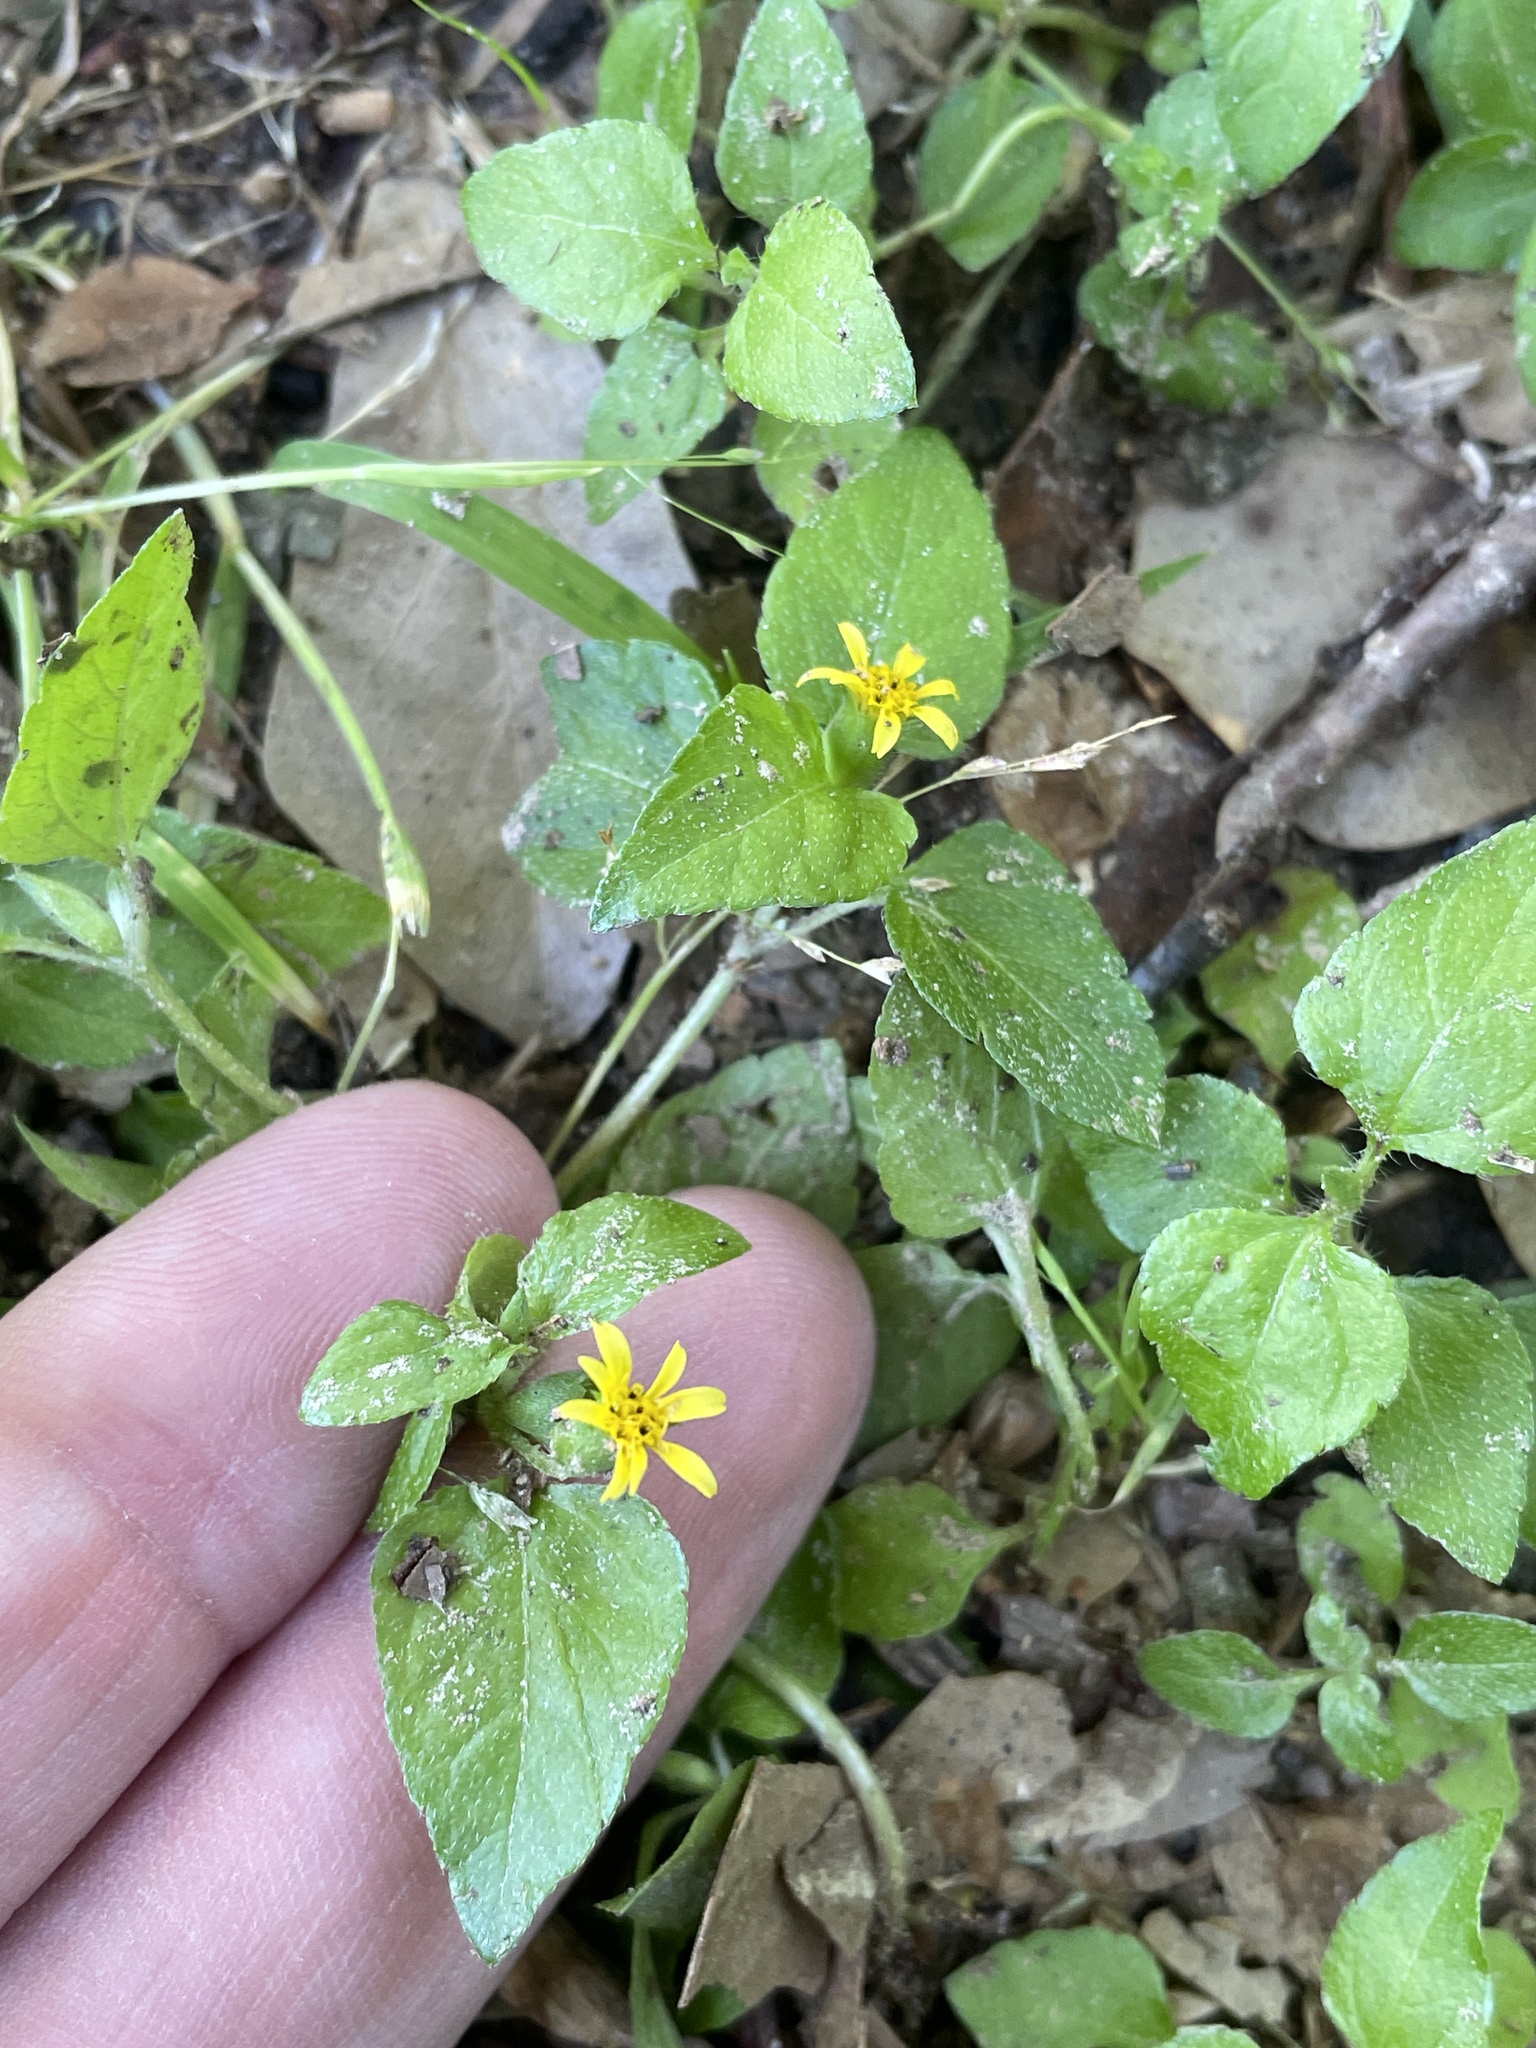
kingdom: Plantae
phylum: Tracheophyta
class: Magnoliopsida
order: Asterales
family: Asteraceae
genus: Calyptocarpus
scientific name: Calyptocarpus vialis
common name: Straggler daisy
